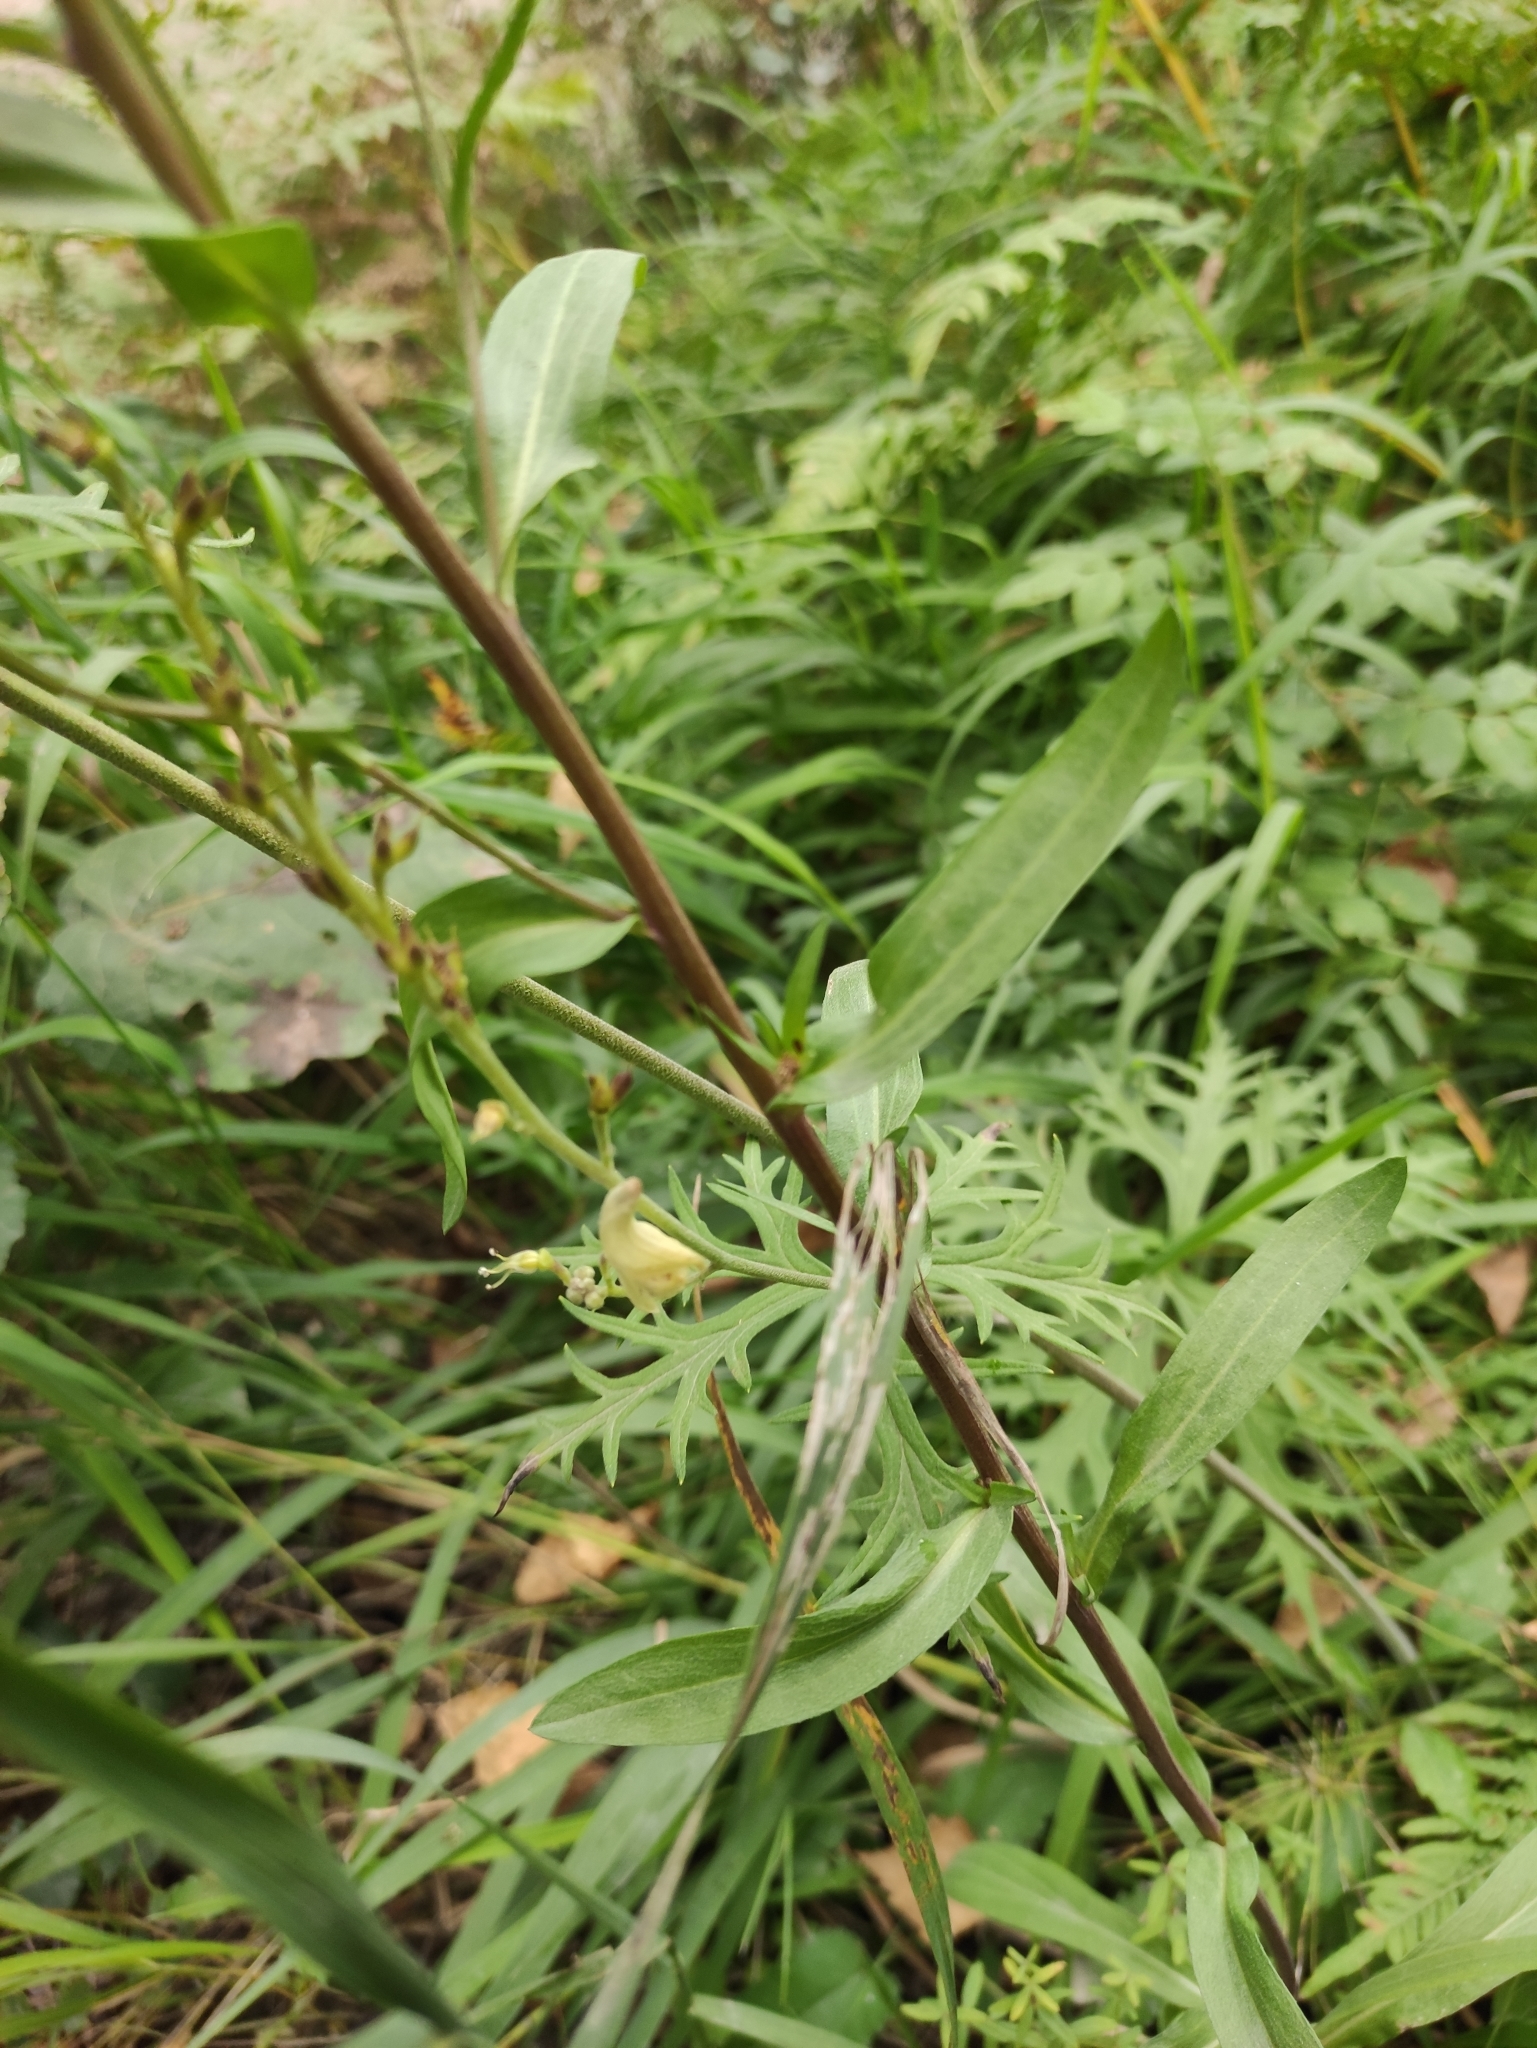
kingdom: Plantae
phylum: Tracheophyta
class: Magnoliopsida
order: Asterales
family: Asteraceae
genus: Erigeron
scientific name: Erigeron
